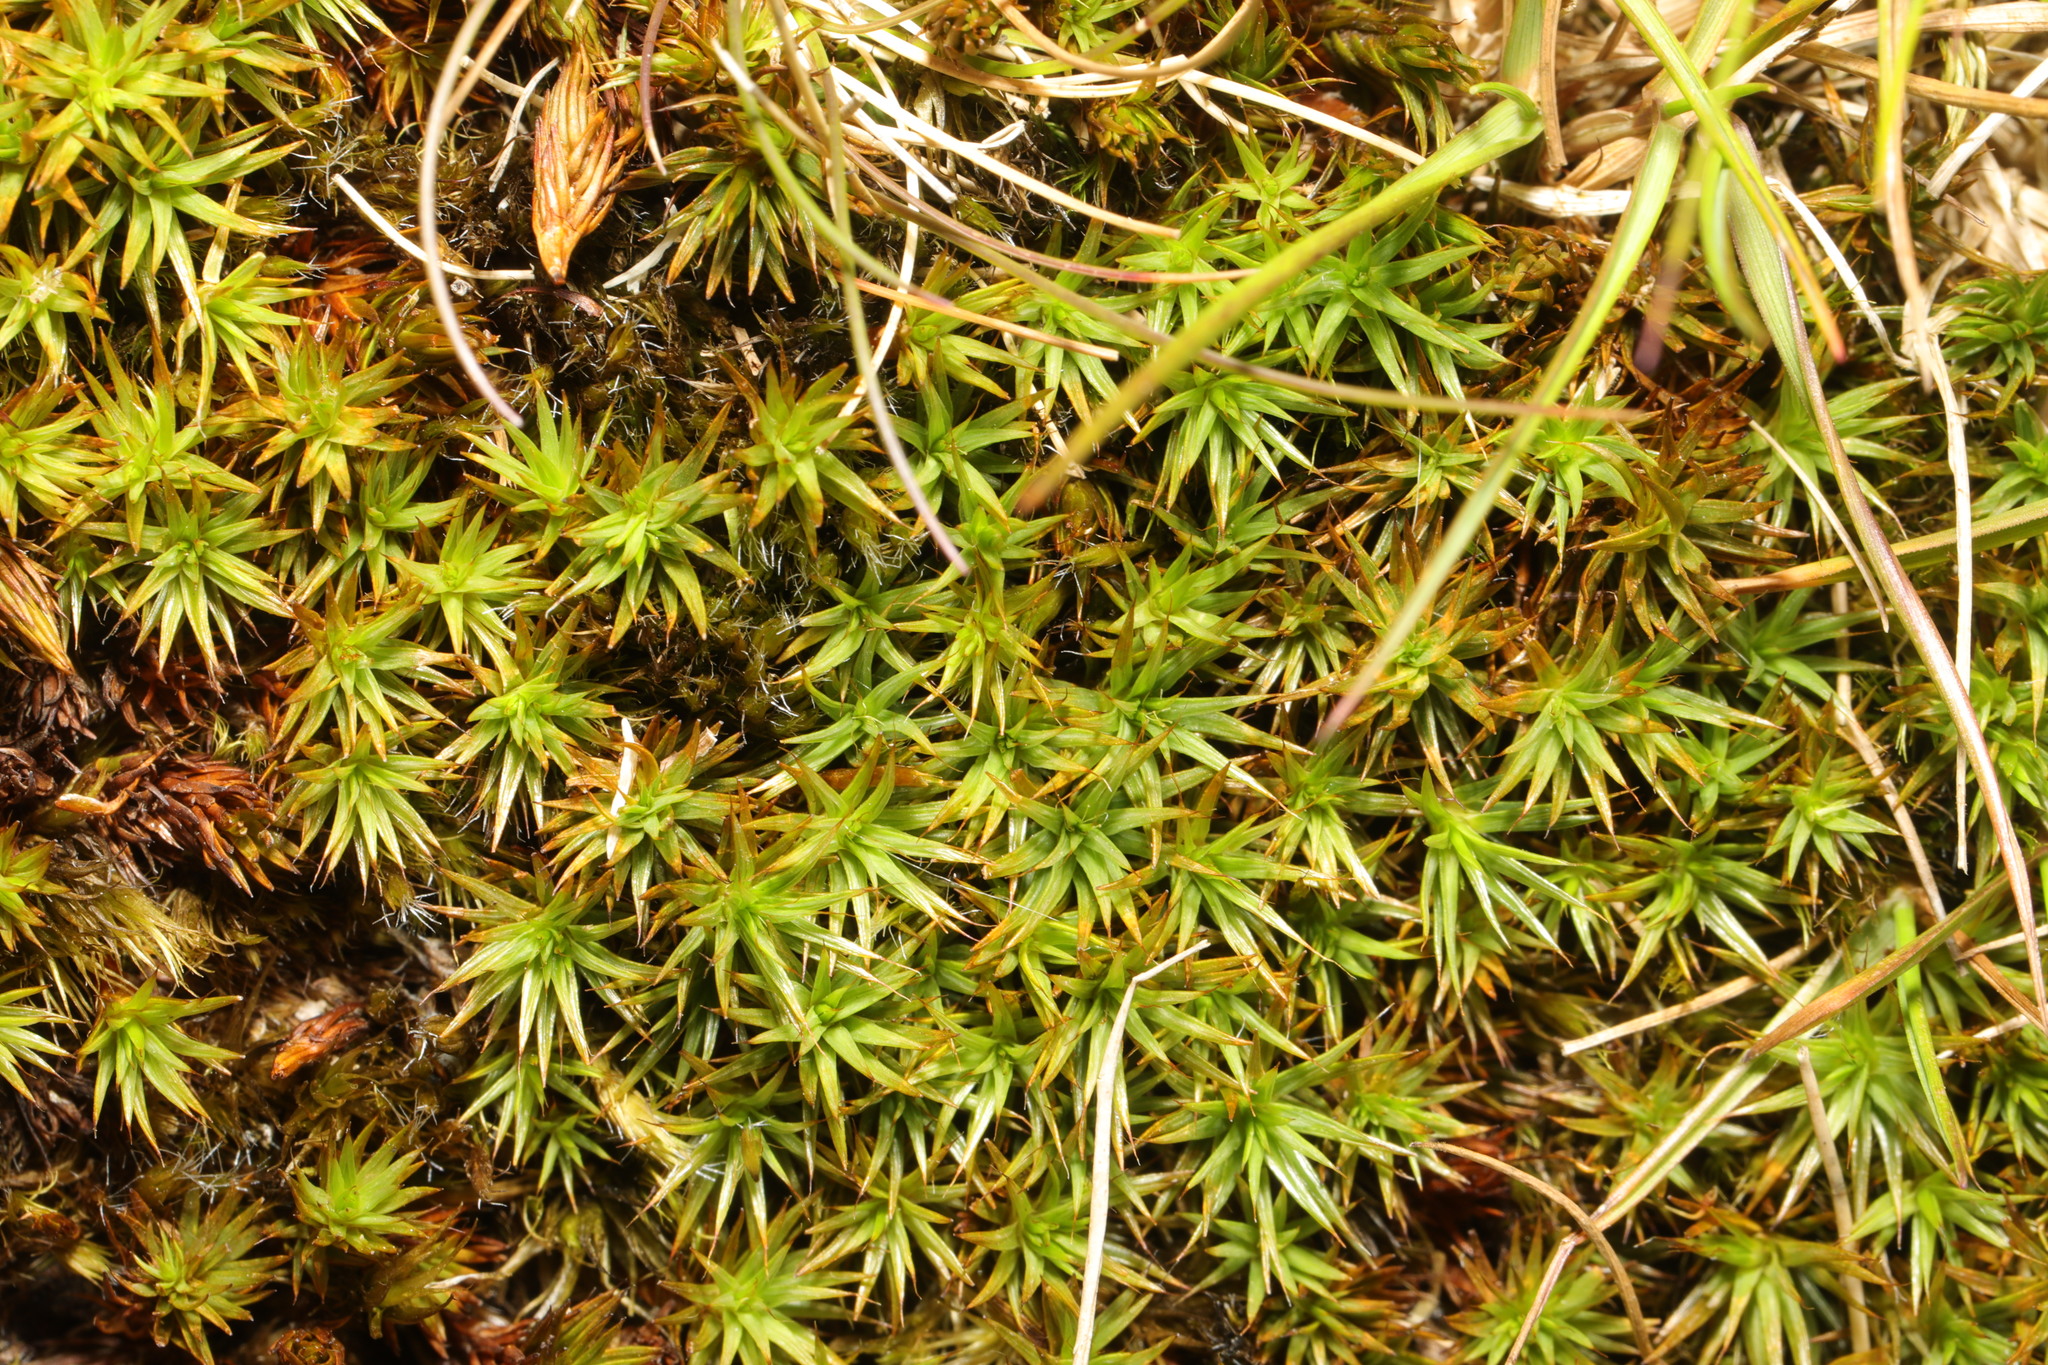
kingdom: Plantae
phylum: Bryophyta
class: Polytrichopsida
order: Polytrichales
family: Polytrichaceae
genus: Polytrichum
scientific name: Polytrichum juniperinum
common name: Juniper haircap moss
